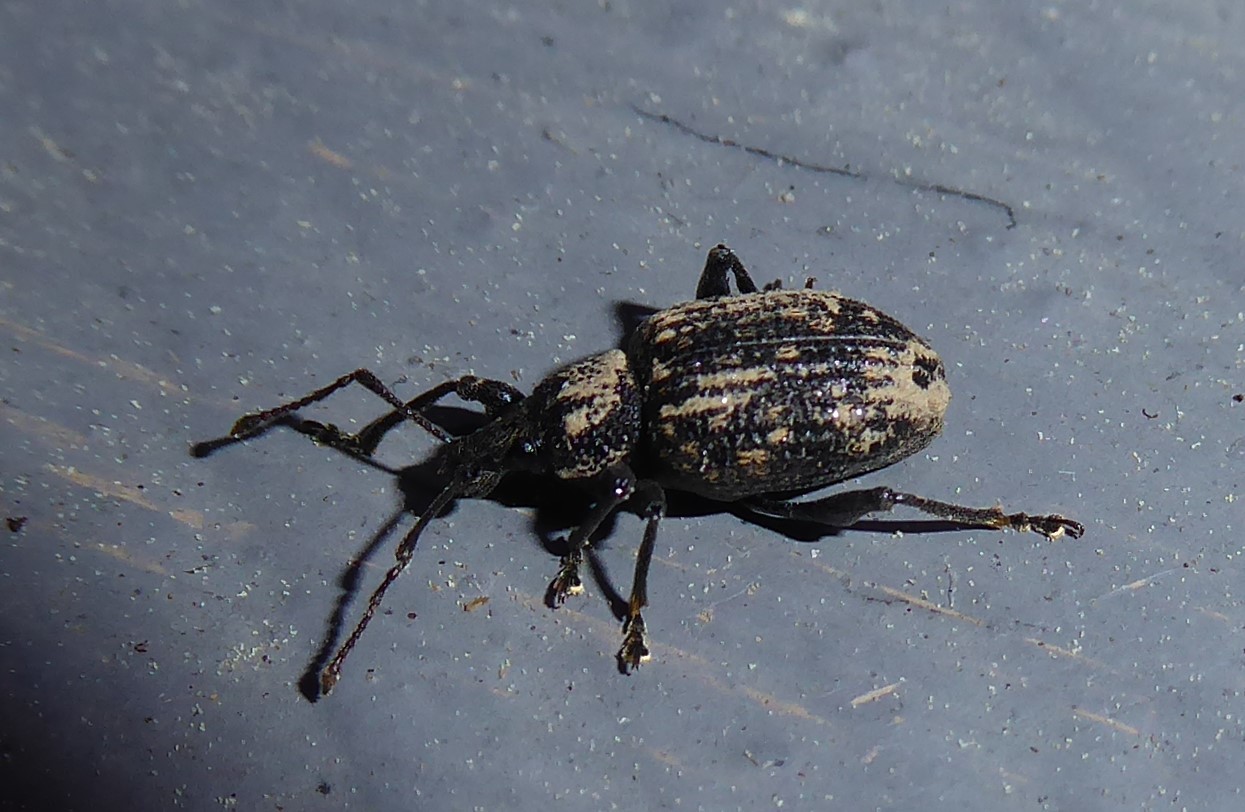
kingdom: Animalia
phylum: Arthropoda
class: Insecta
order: Coleoptera
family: Curculionidae
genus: Otiorhynchus
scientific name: Otiorhynchus sulcatus
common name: Black vine weevil
